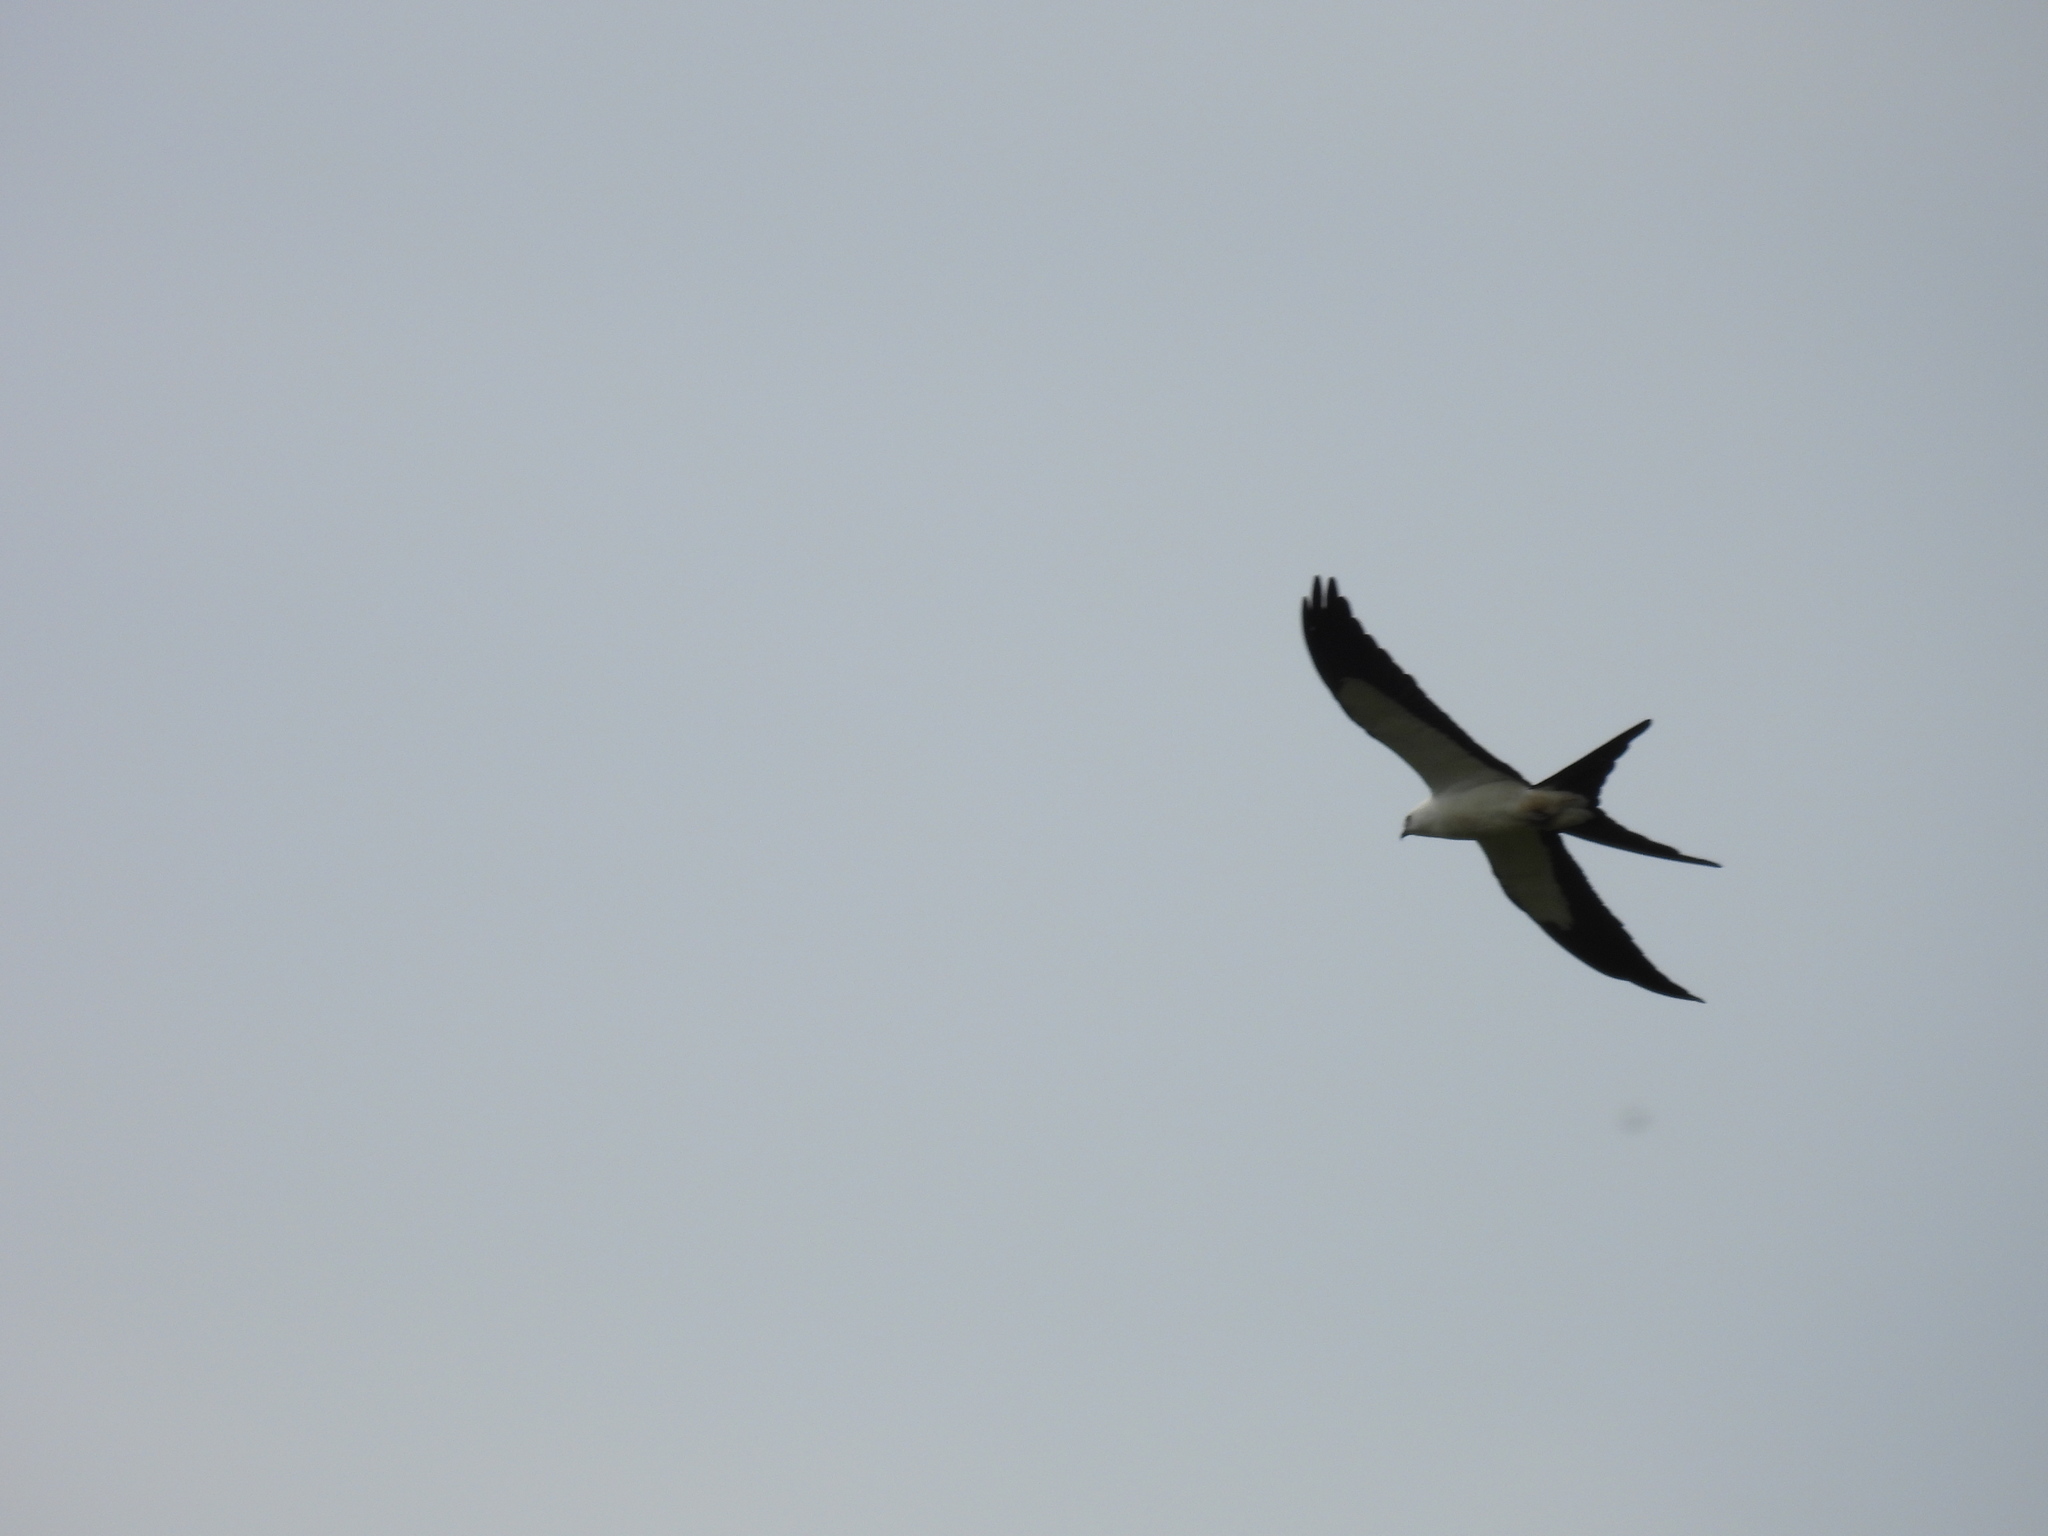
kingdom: Animalia
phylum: Chordata
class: Aves
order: Accipitriformes
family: Accipitridae
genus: Elanoides
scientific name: Elanoides forficatus
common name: Swallow-tailed kite
